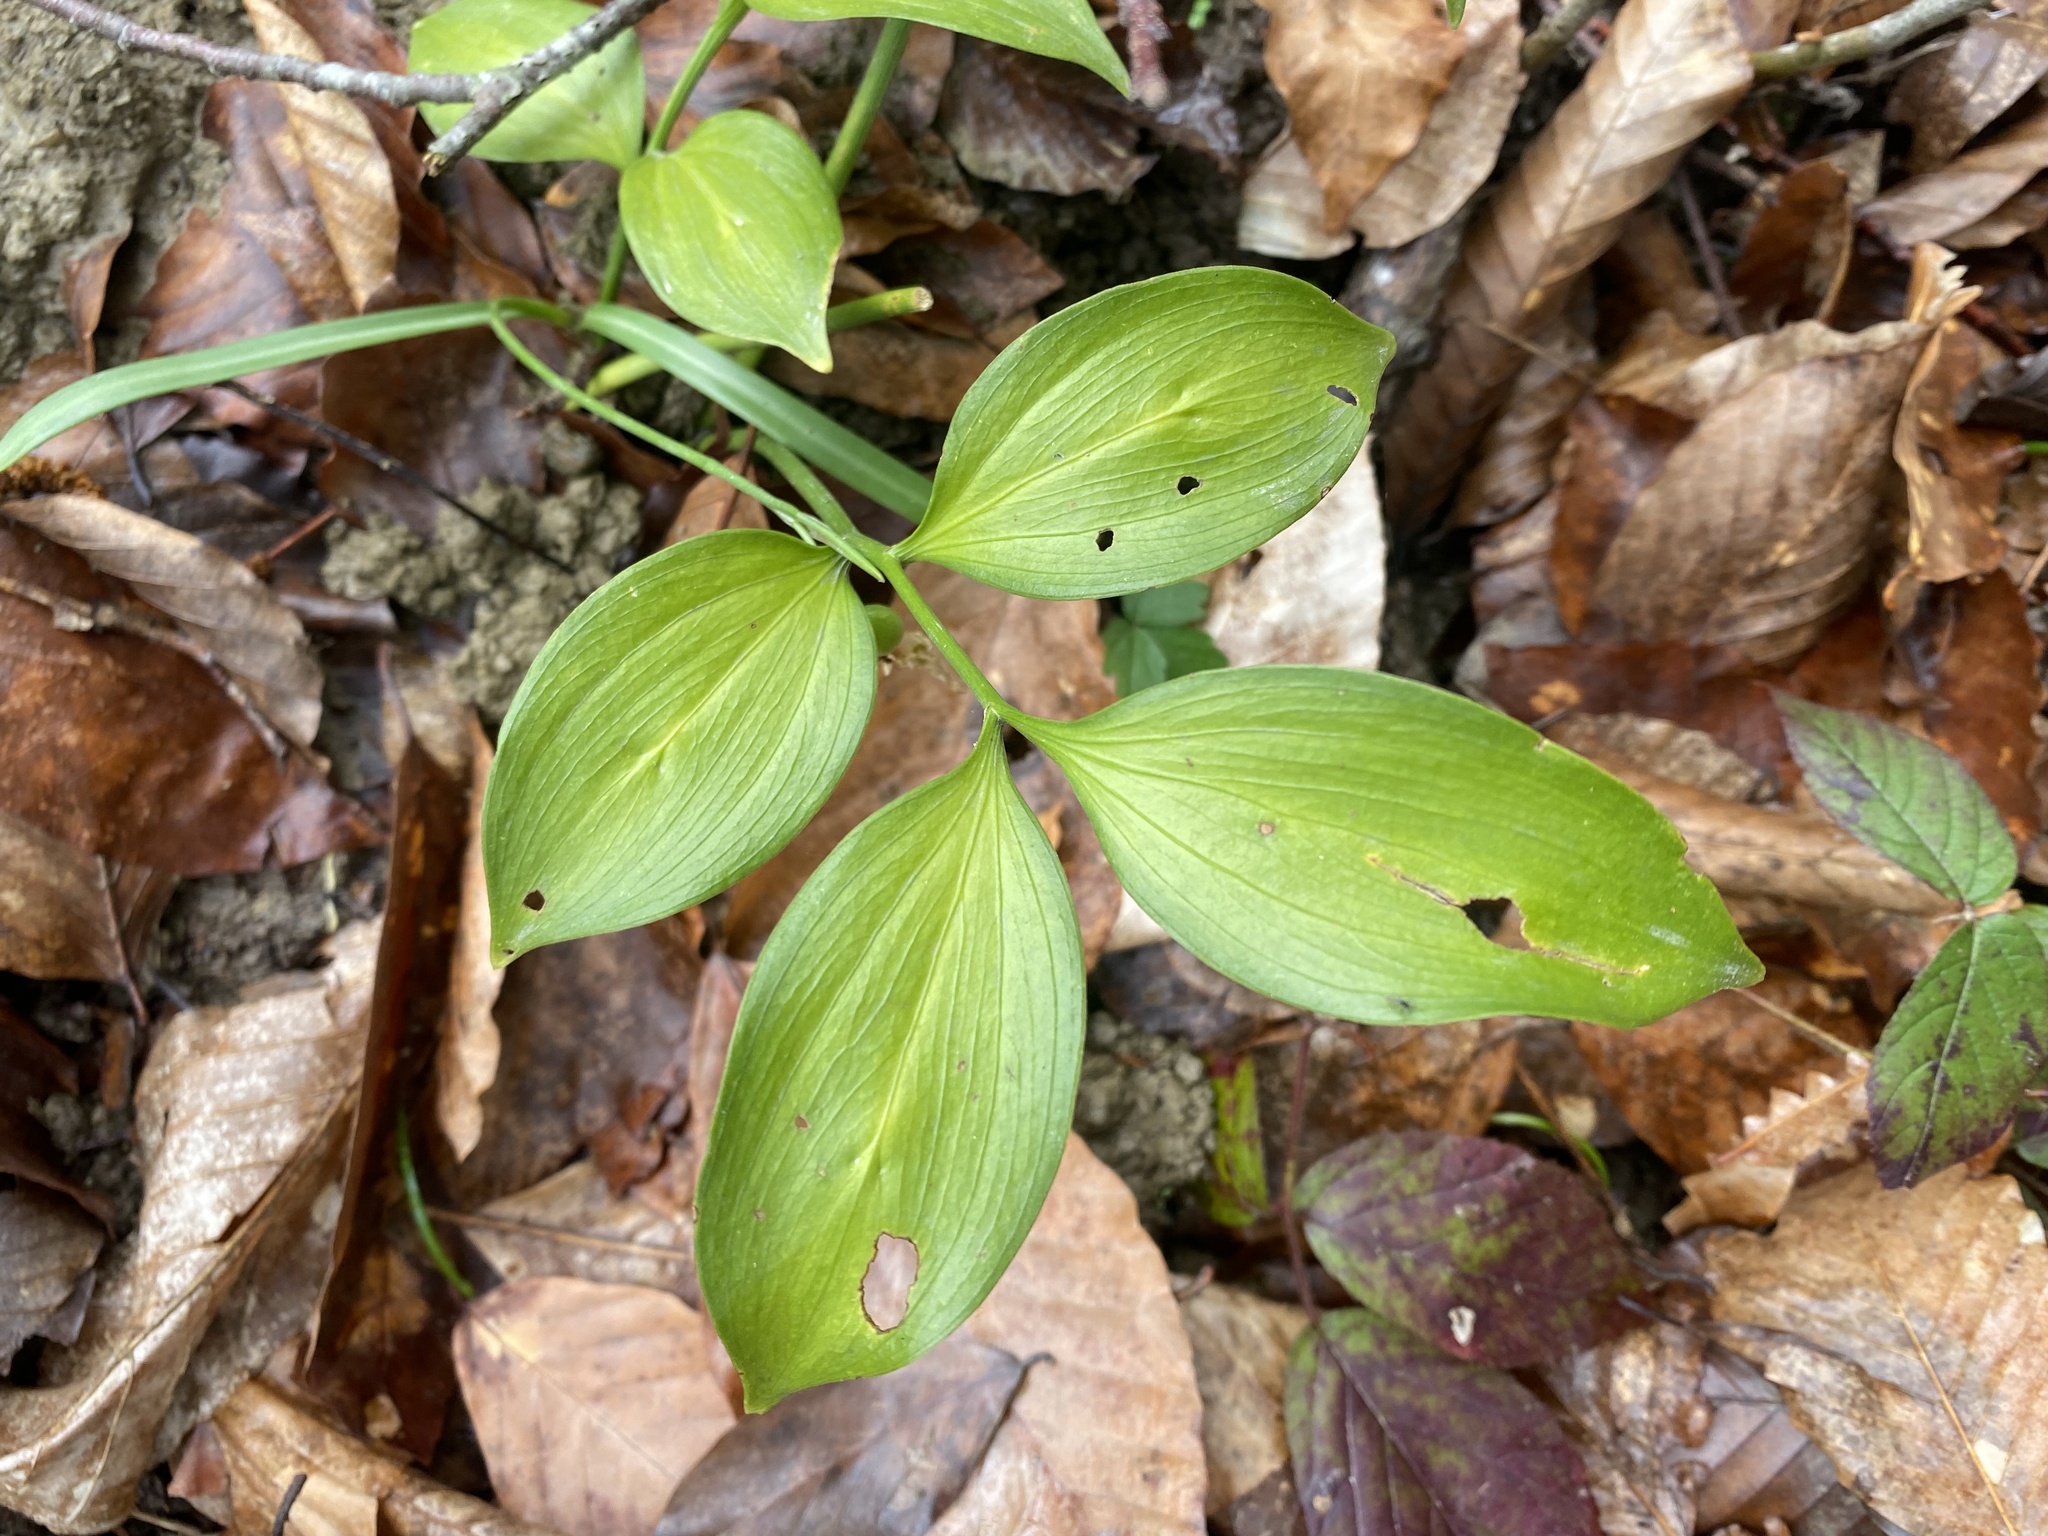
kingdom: Plantae
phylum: Tracheophyta
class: Liliopsida
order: Asparagales
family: Asparagaceae
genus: Ruscus
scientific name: Ruscus colchicus
